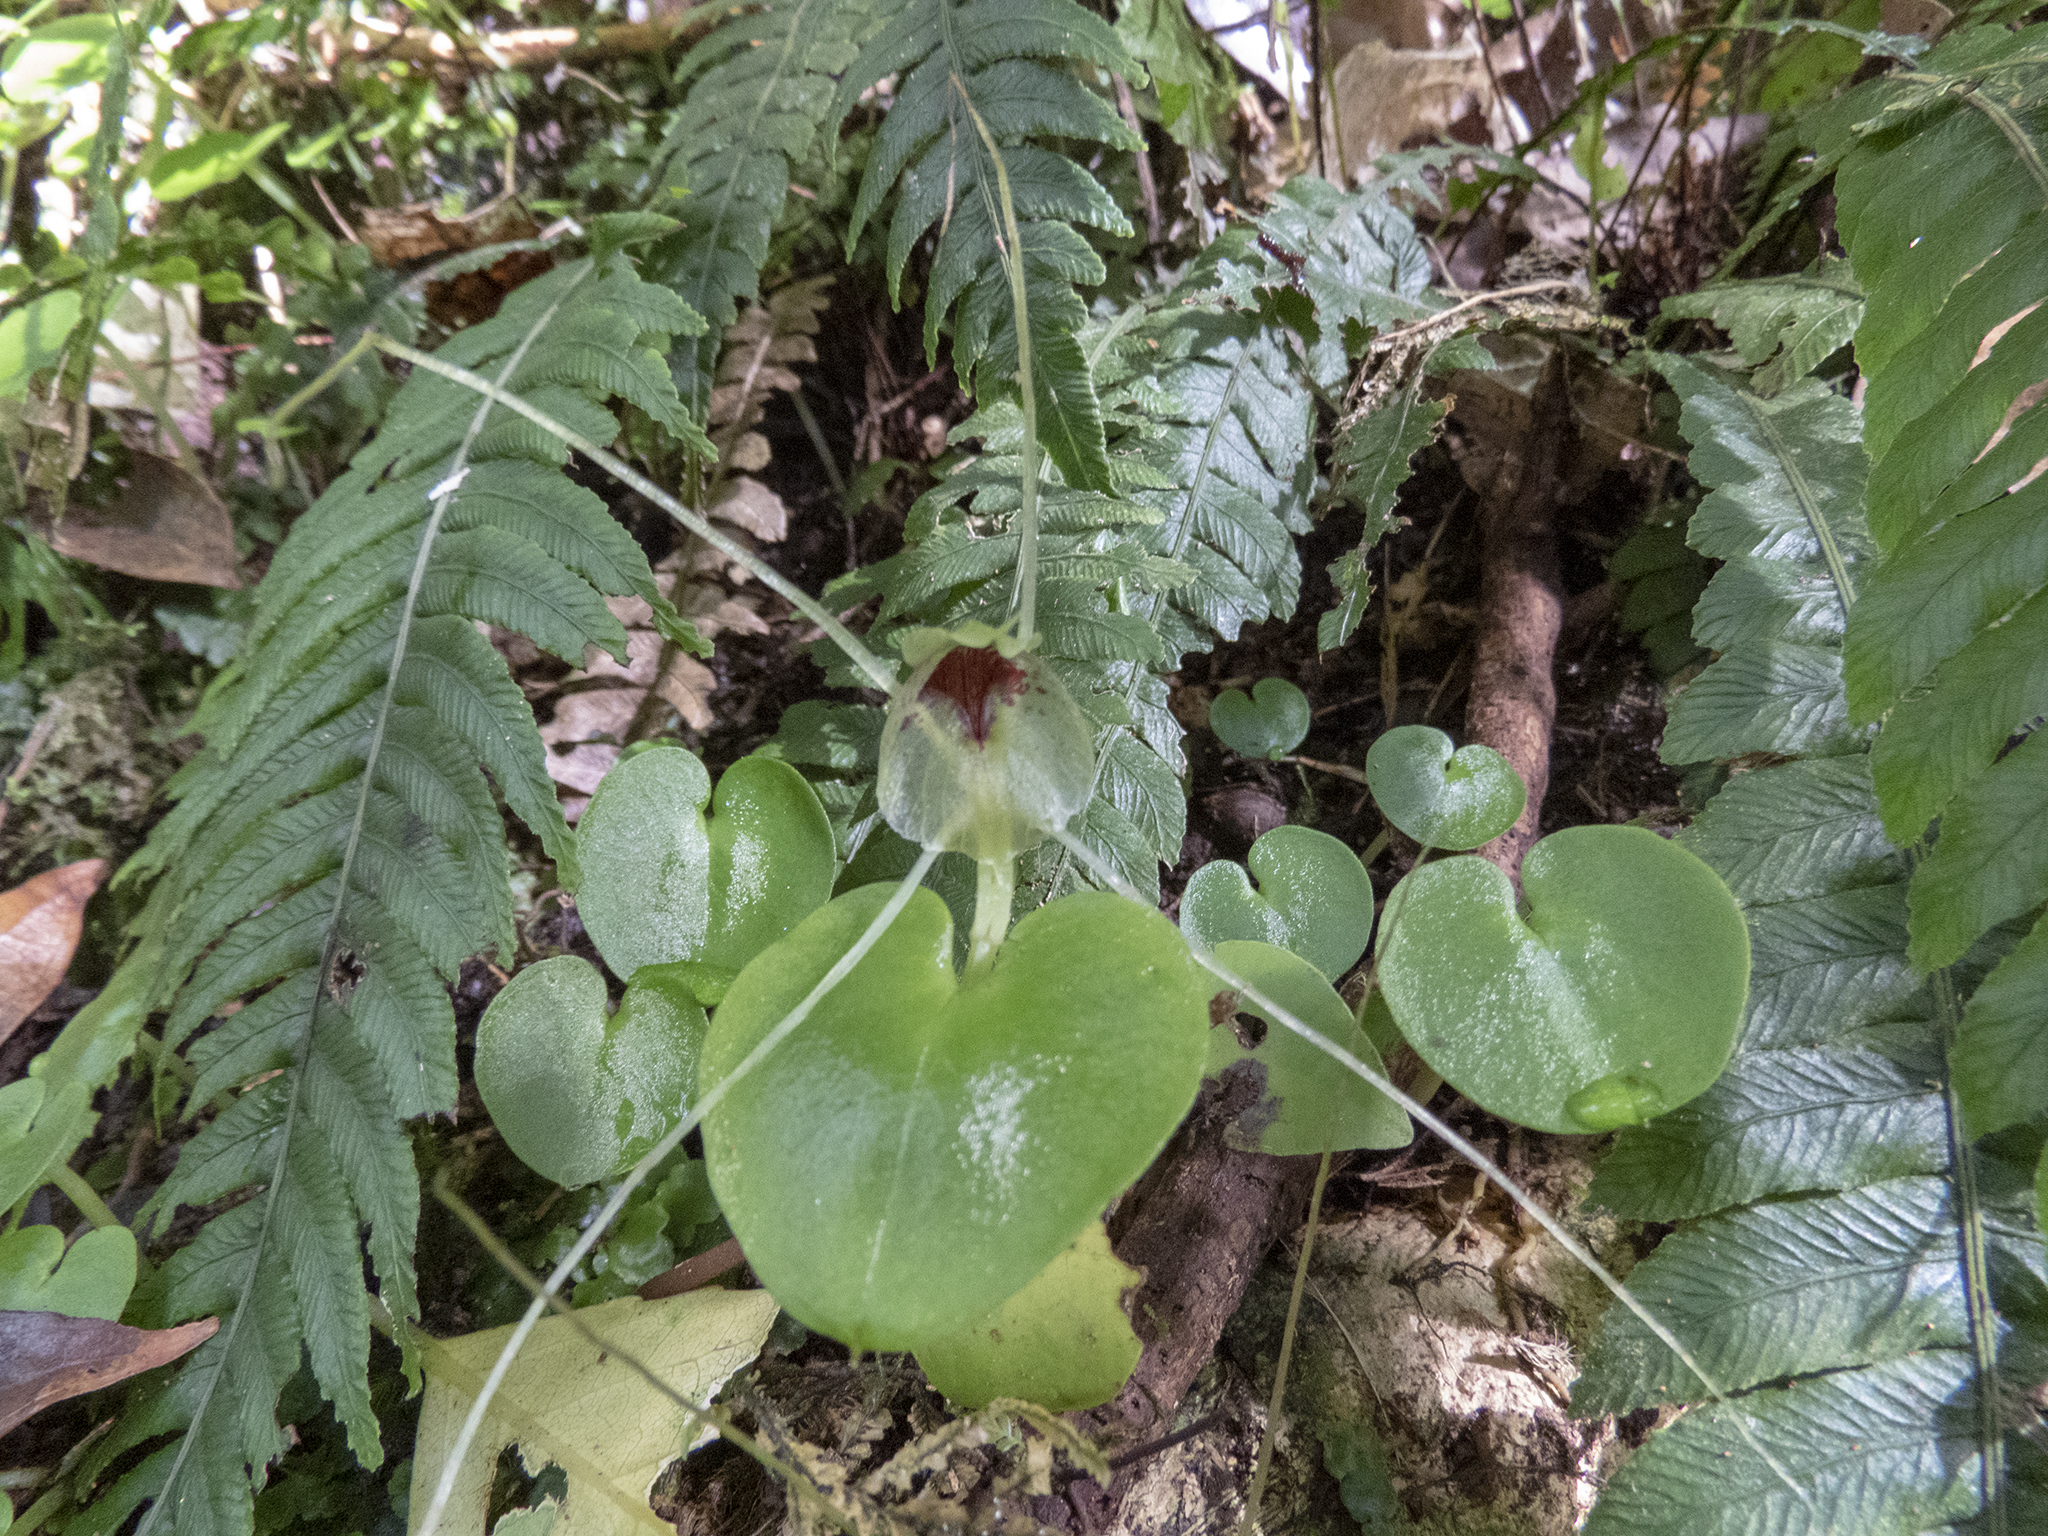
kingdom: Plantae
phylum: Tracheophyta
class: Liliopsida
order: Asparagales
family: Orchidaceae
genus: Corybas
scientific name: Corybas iridescens
